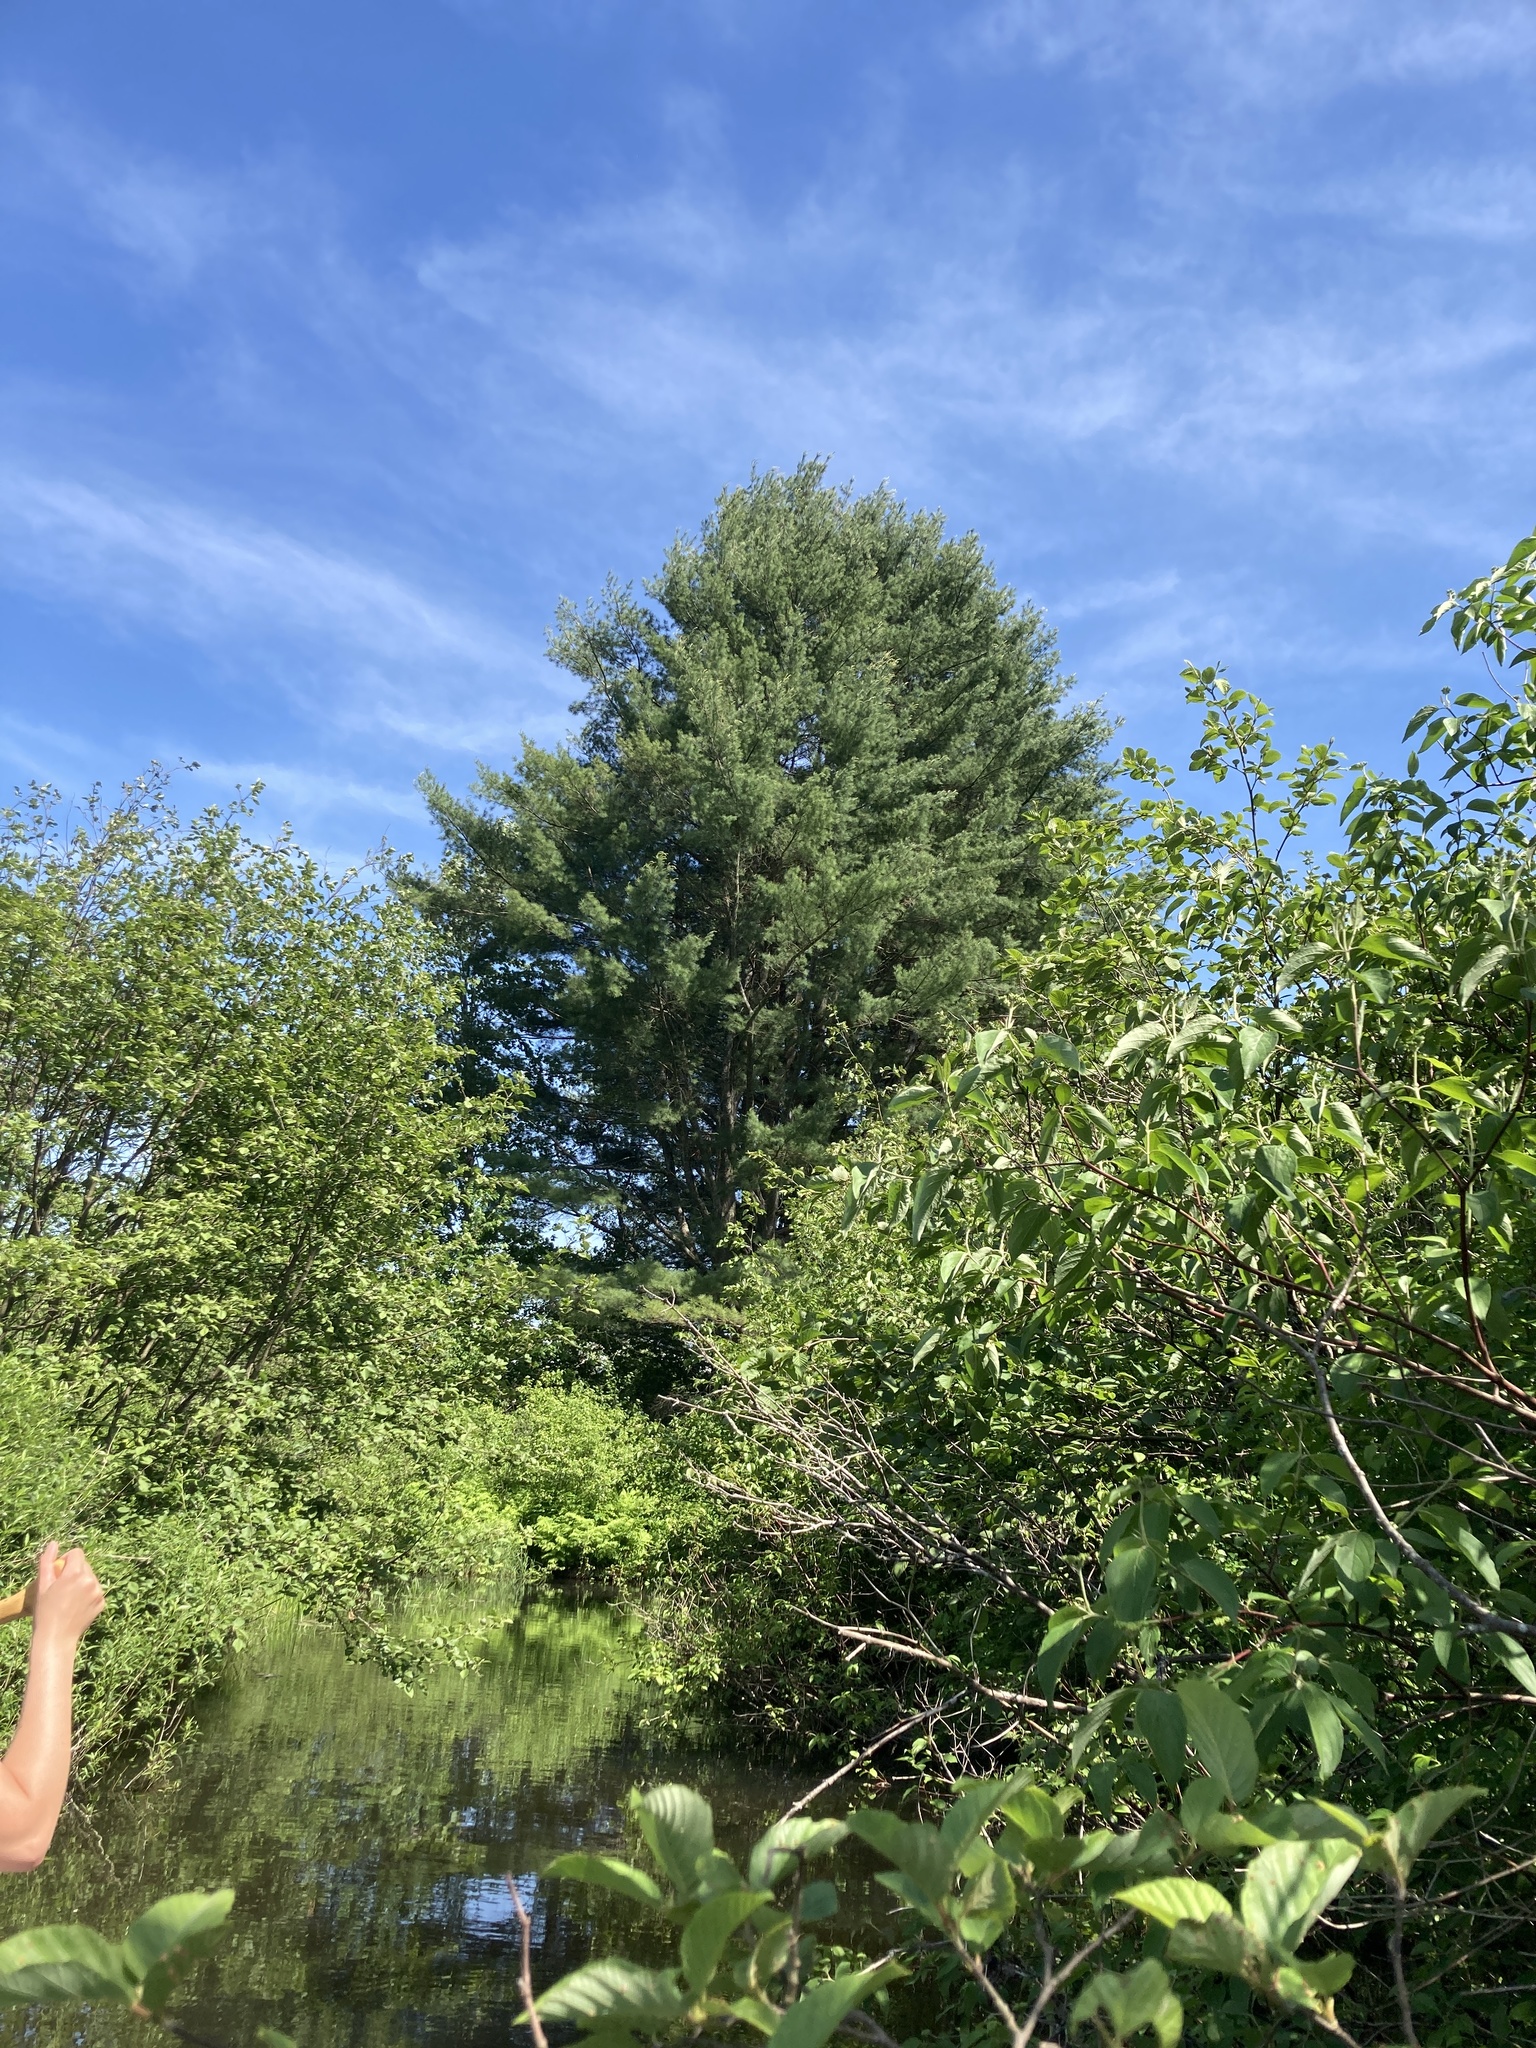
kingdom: Plantae
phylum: Tracheophyta
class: Pinopsida
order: Pinales
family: Pinaceae
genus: Pinus
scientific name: Pinus strobus
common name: Weymouth pine
